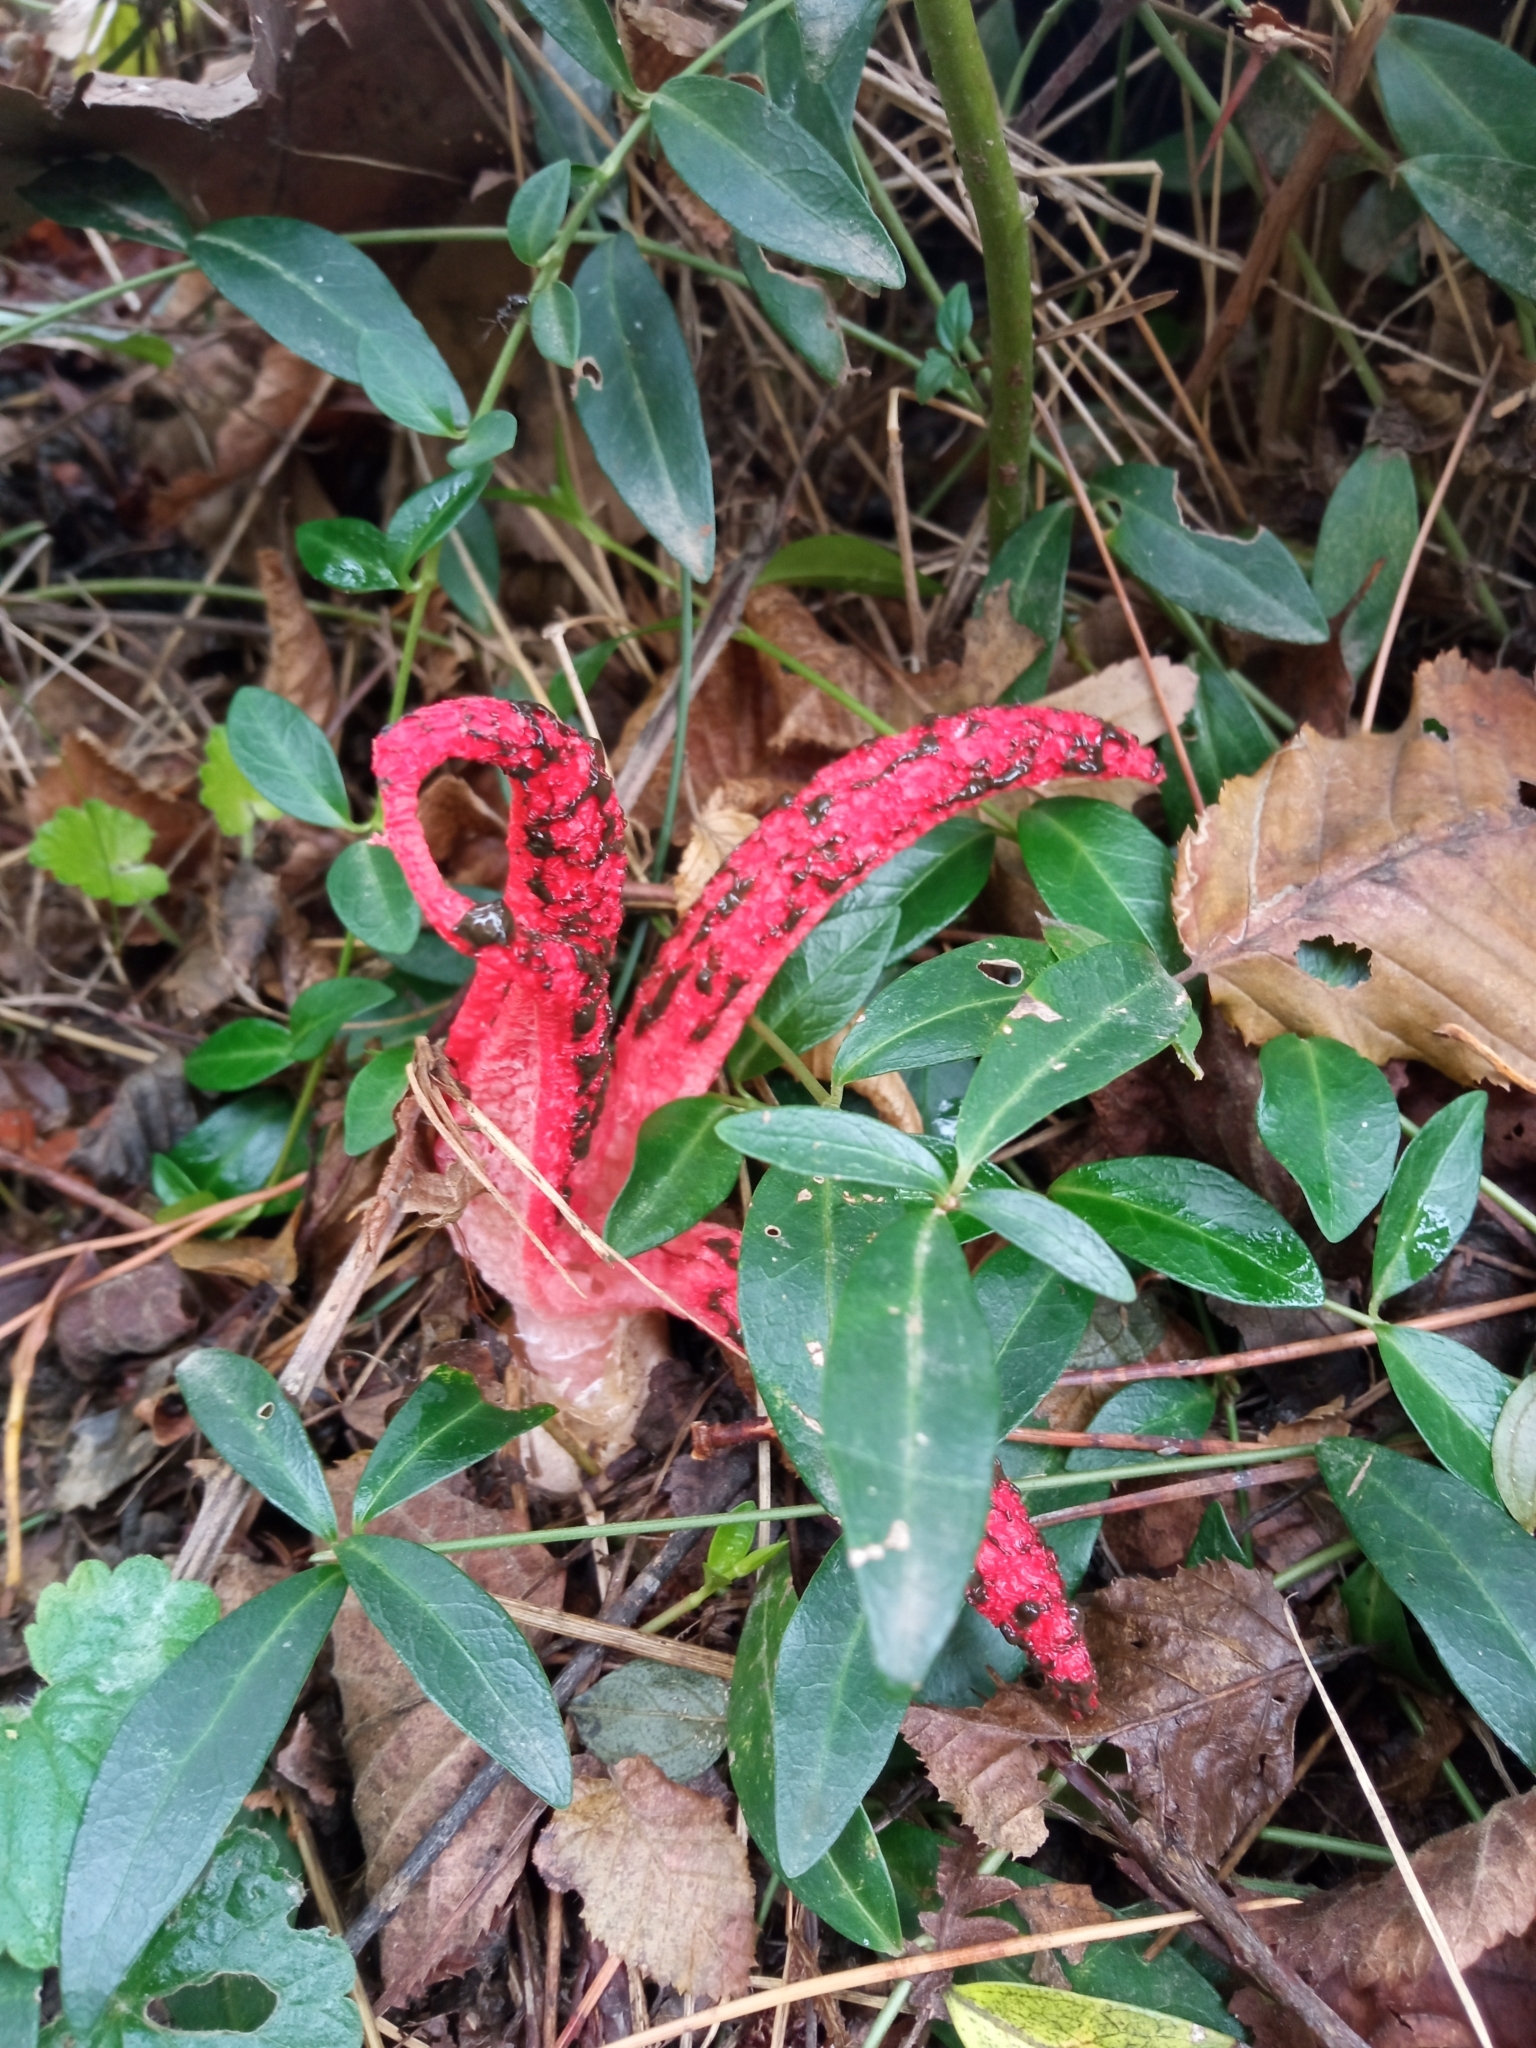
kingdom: Fungi
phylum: Basidiomycota
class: Agaricomycetes
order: Phallales
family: Phallaceae
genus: Clathrus
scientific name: Clathrus archeri
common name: Devil's fingers
